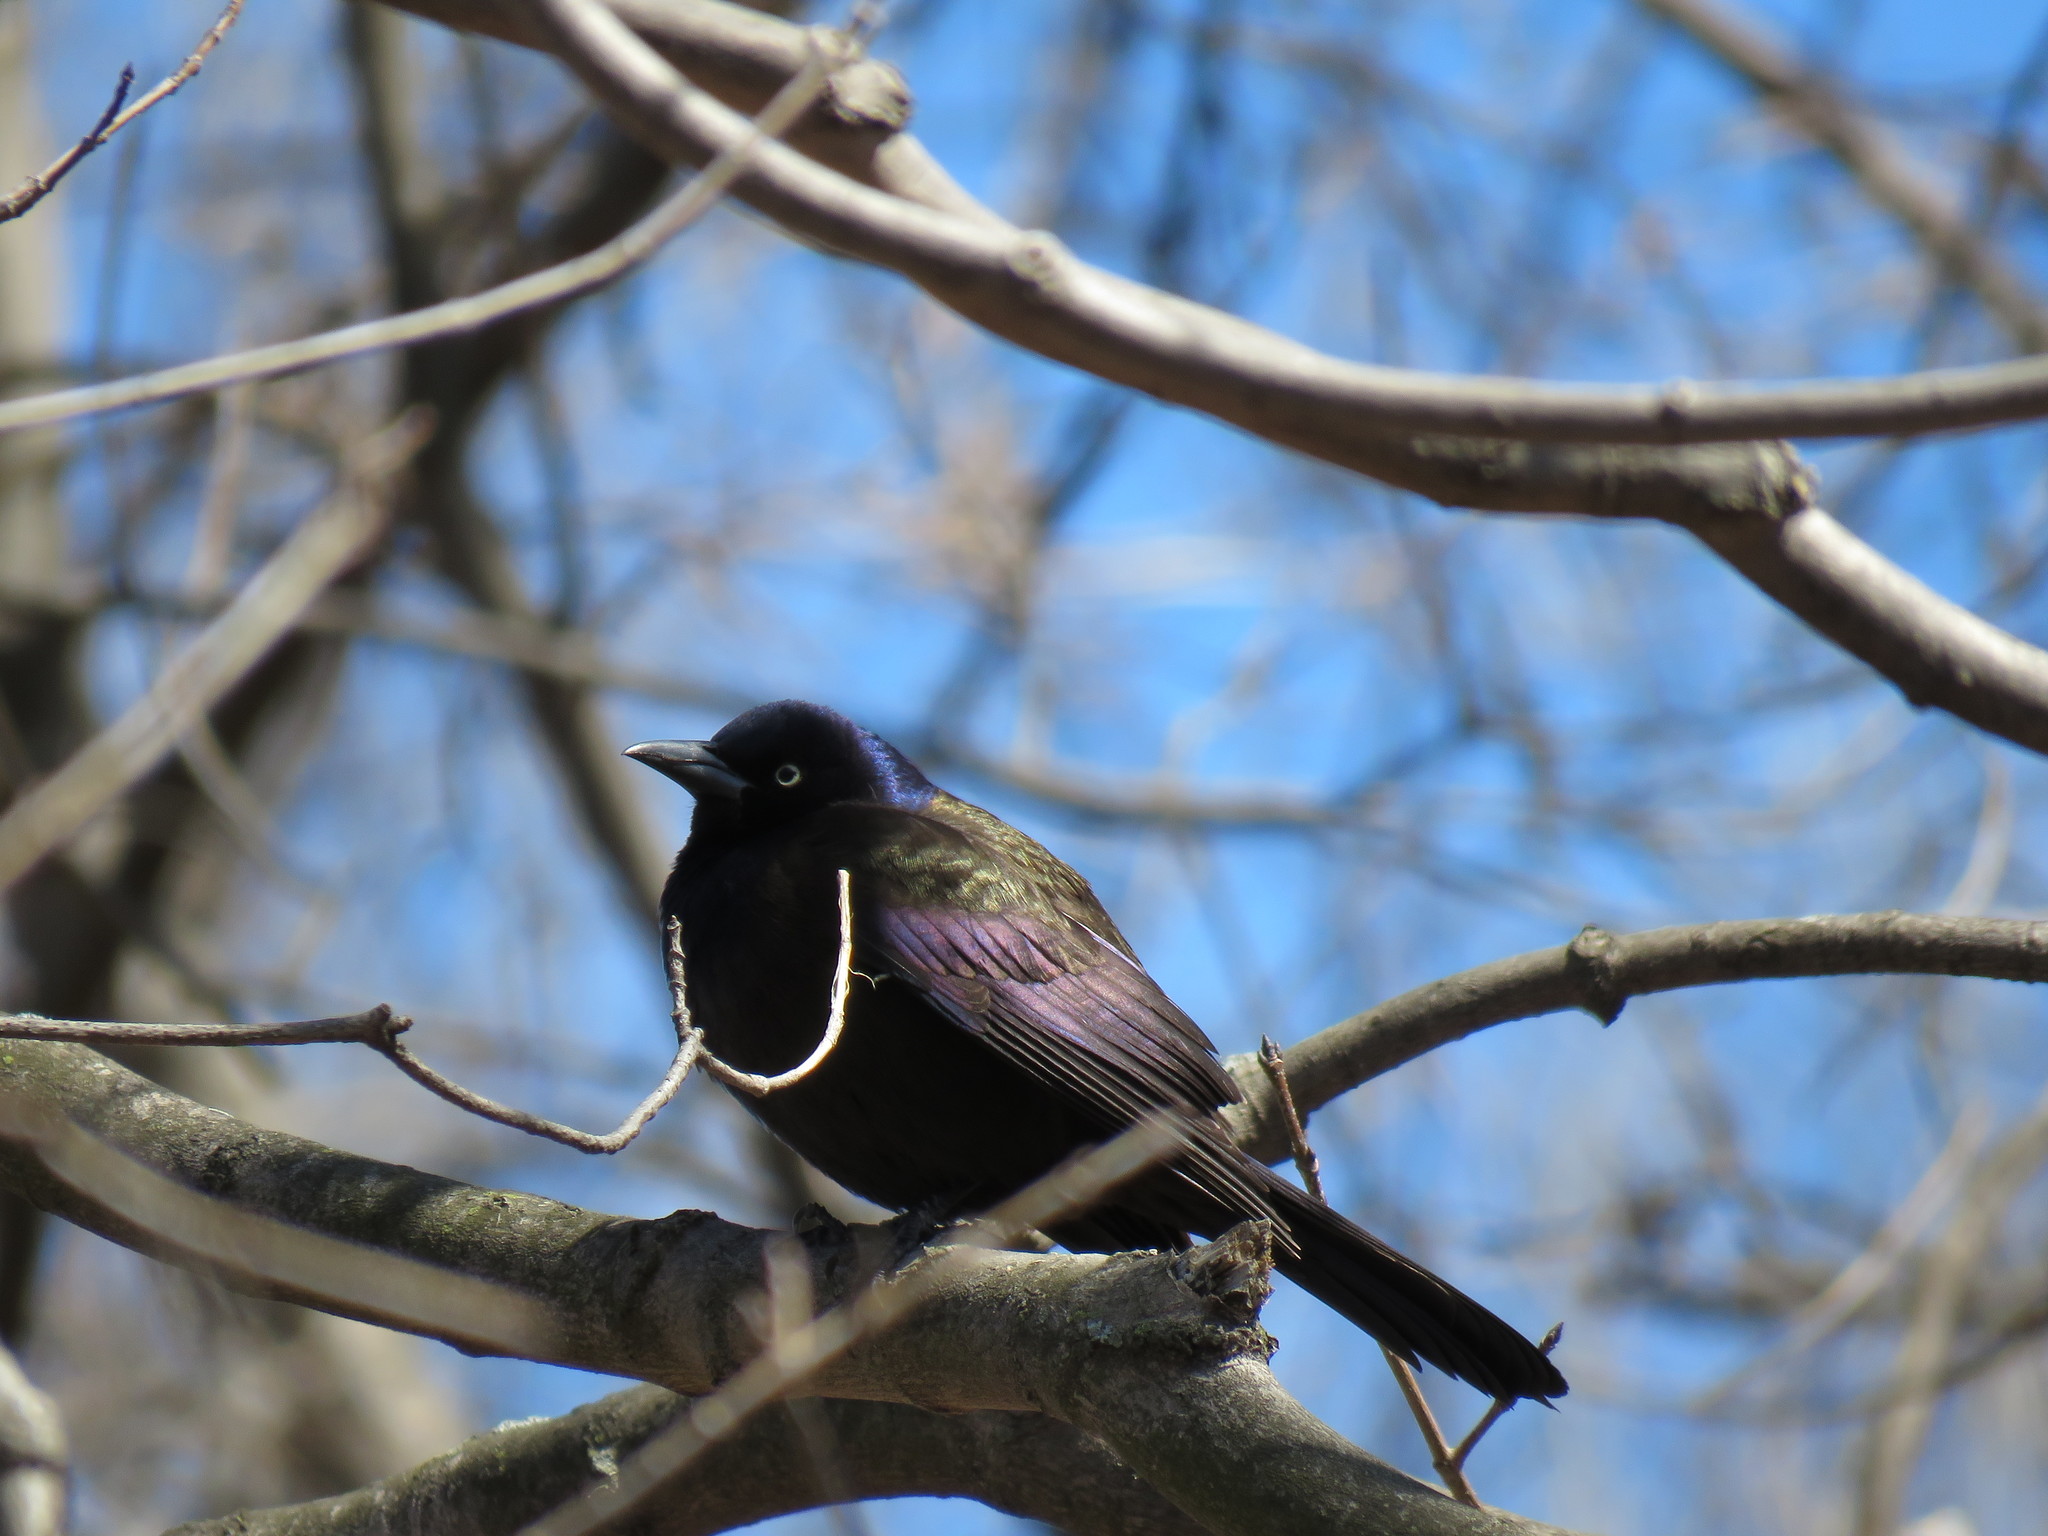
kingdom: Animalia
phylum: Chordata
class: Aves
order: Passeriformes
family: Icteridae
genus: Quiscalus
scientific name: Quiscalus quiscula
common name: Common grackle
